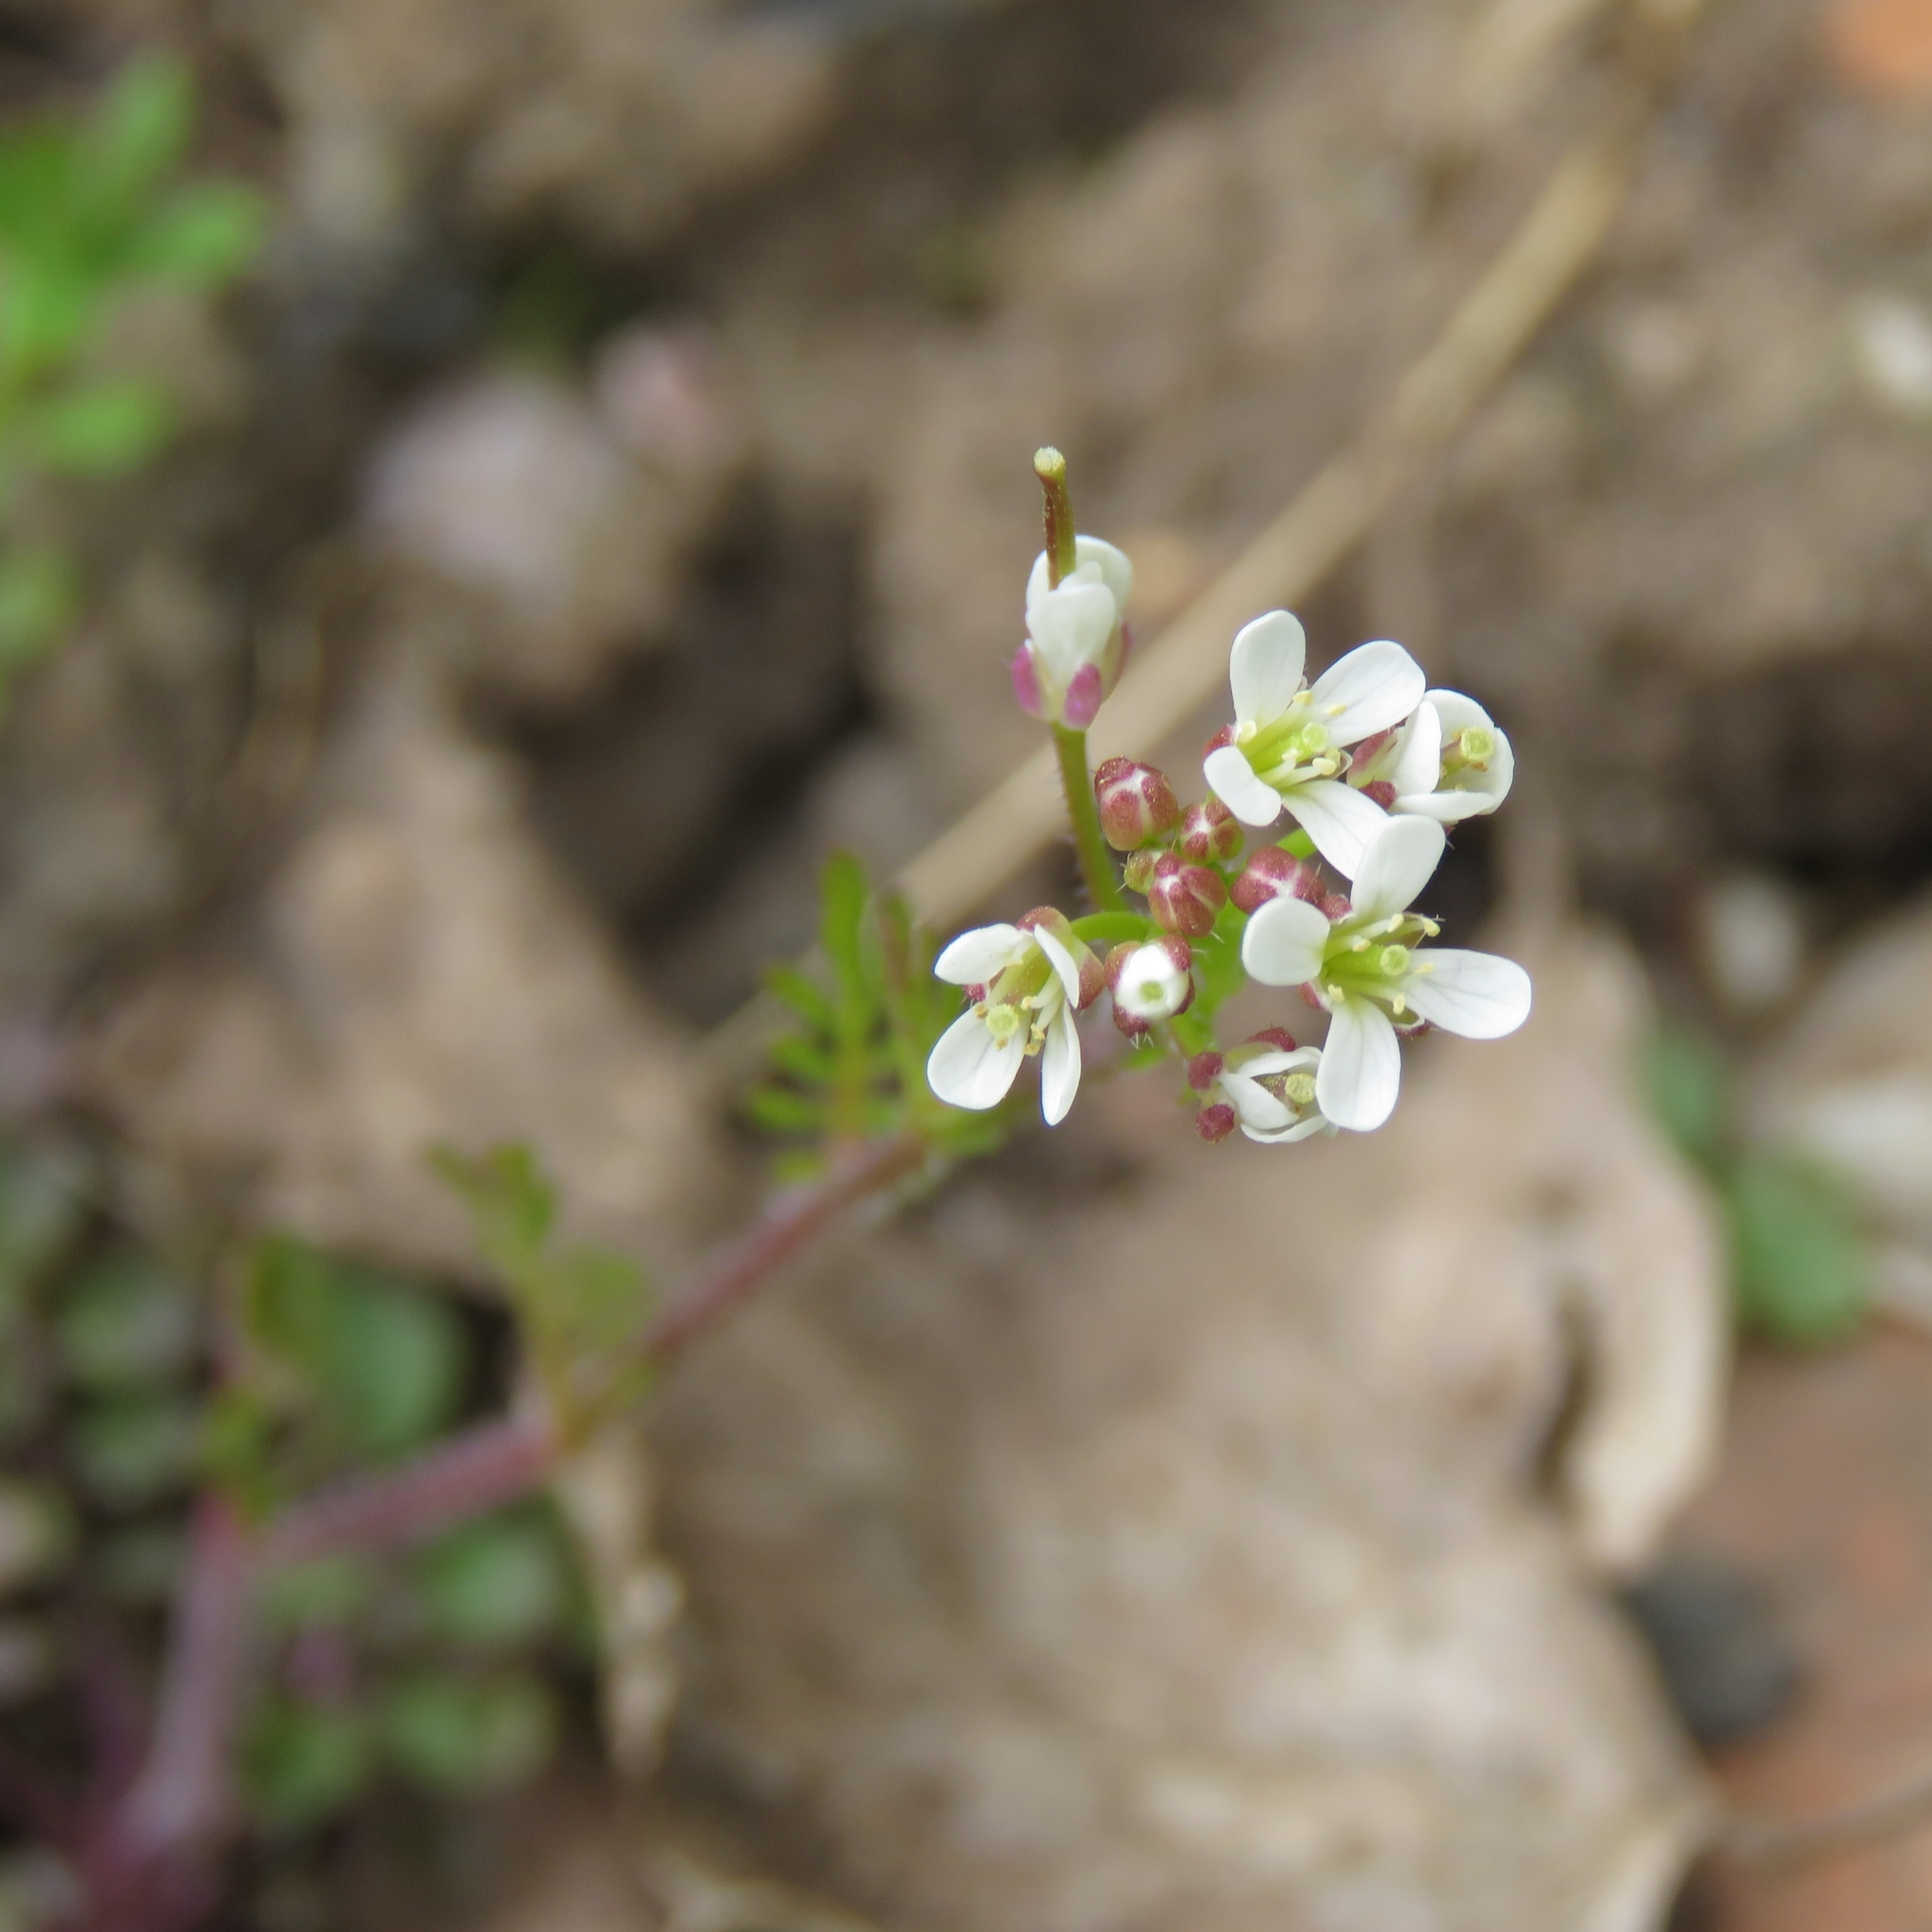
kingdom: Plantae
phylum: Tracheophyta
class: Magnoliopsida
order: Brassicales
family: Brassicaceae
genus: Cardamine
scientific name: Cardamine flexuosa
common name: Woodland bittercress
